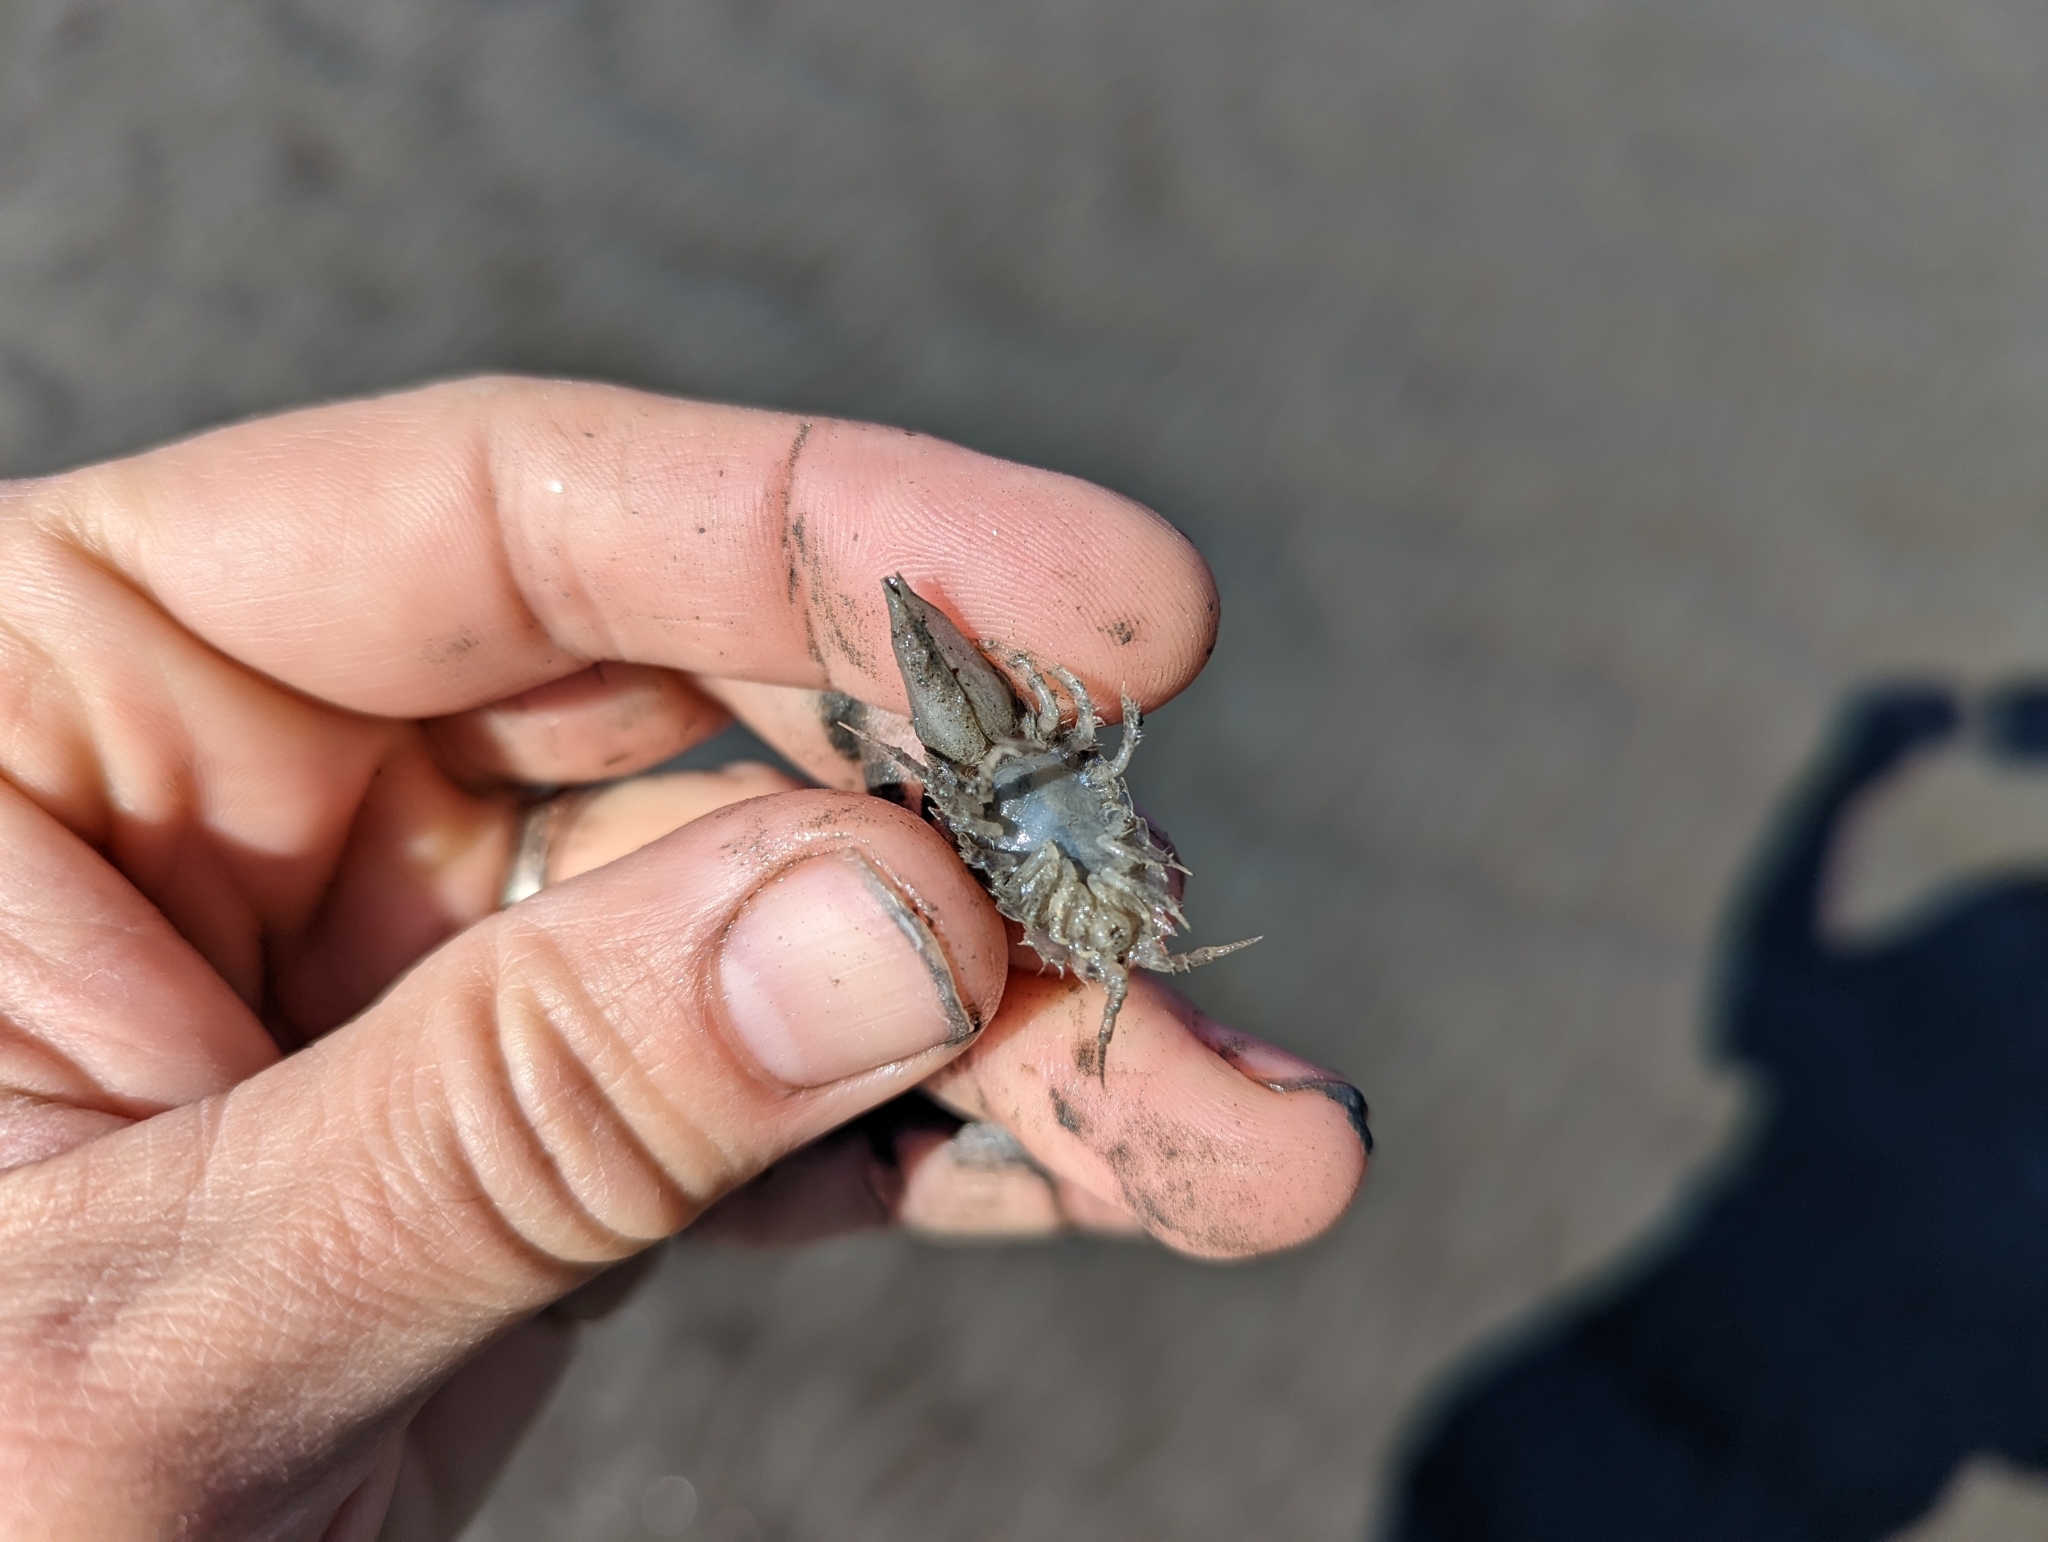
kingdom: Animalia
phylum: Arthropoda
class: Malacostraca
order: Isopoda
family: Chaetiliidae
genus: Saduria
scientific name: Saduria entomon
